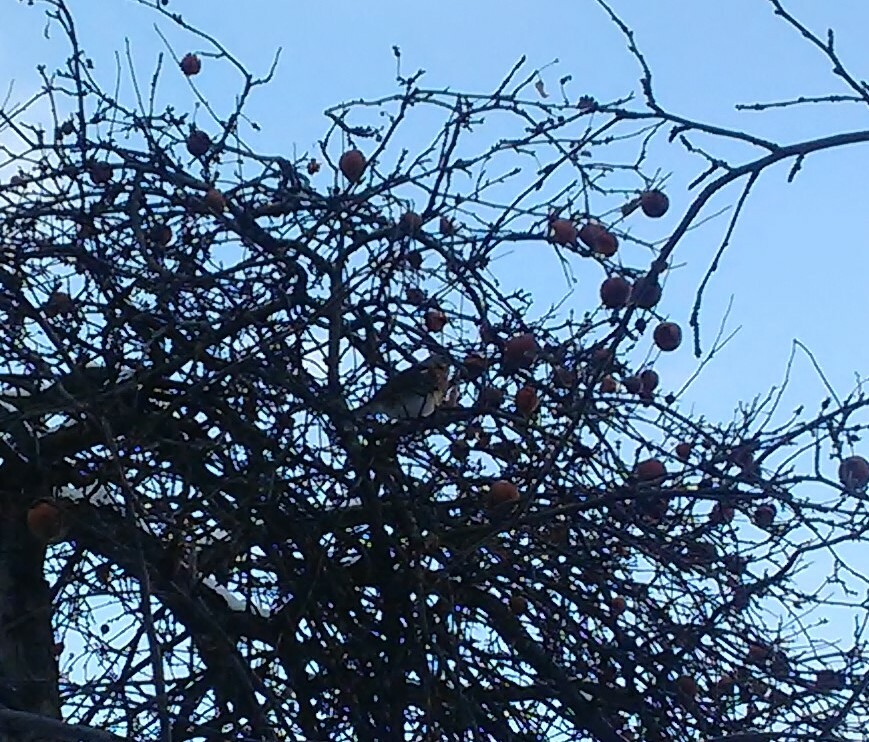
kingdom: Animalia
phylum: Chordata
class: Aves
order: Passeriformes
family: Turdidae
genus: Turdus
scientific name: Turdus pilaris
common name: Fieldfare
